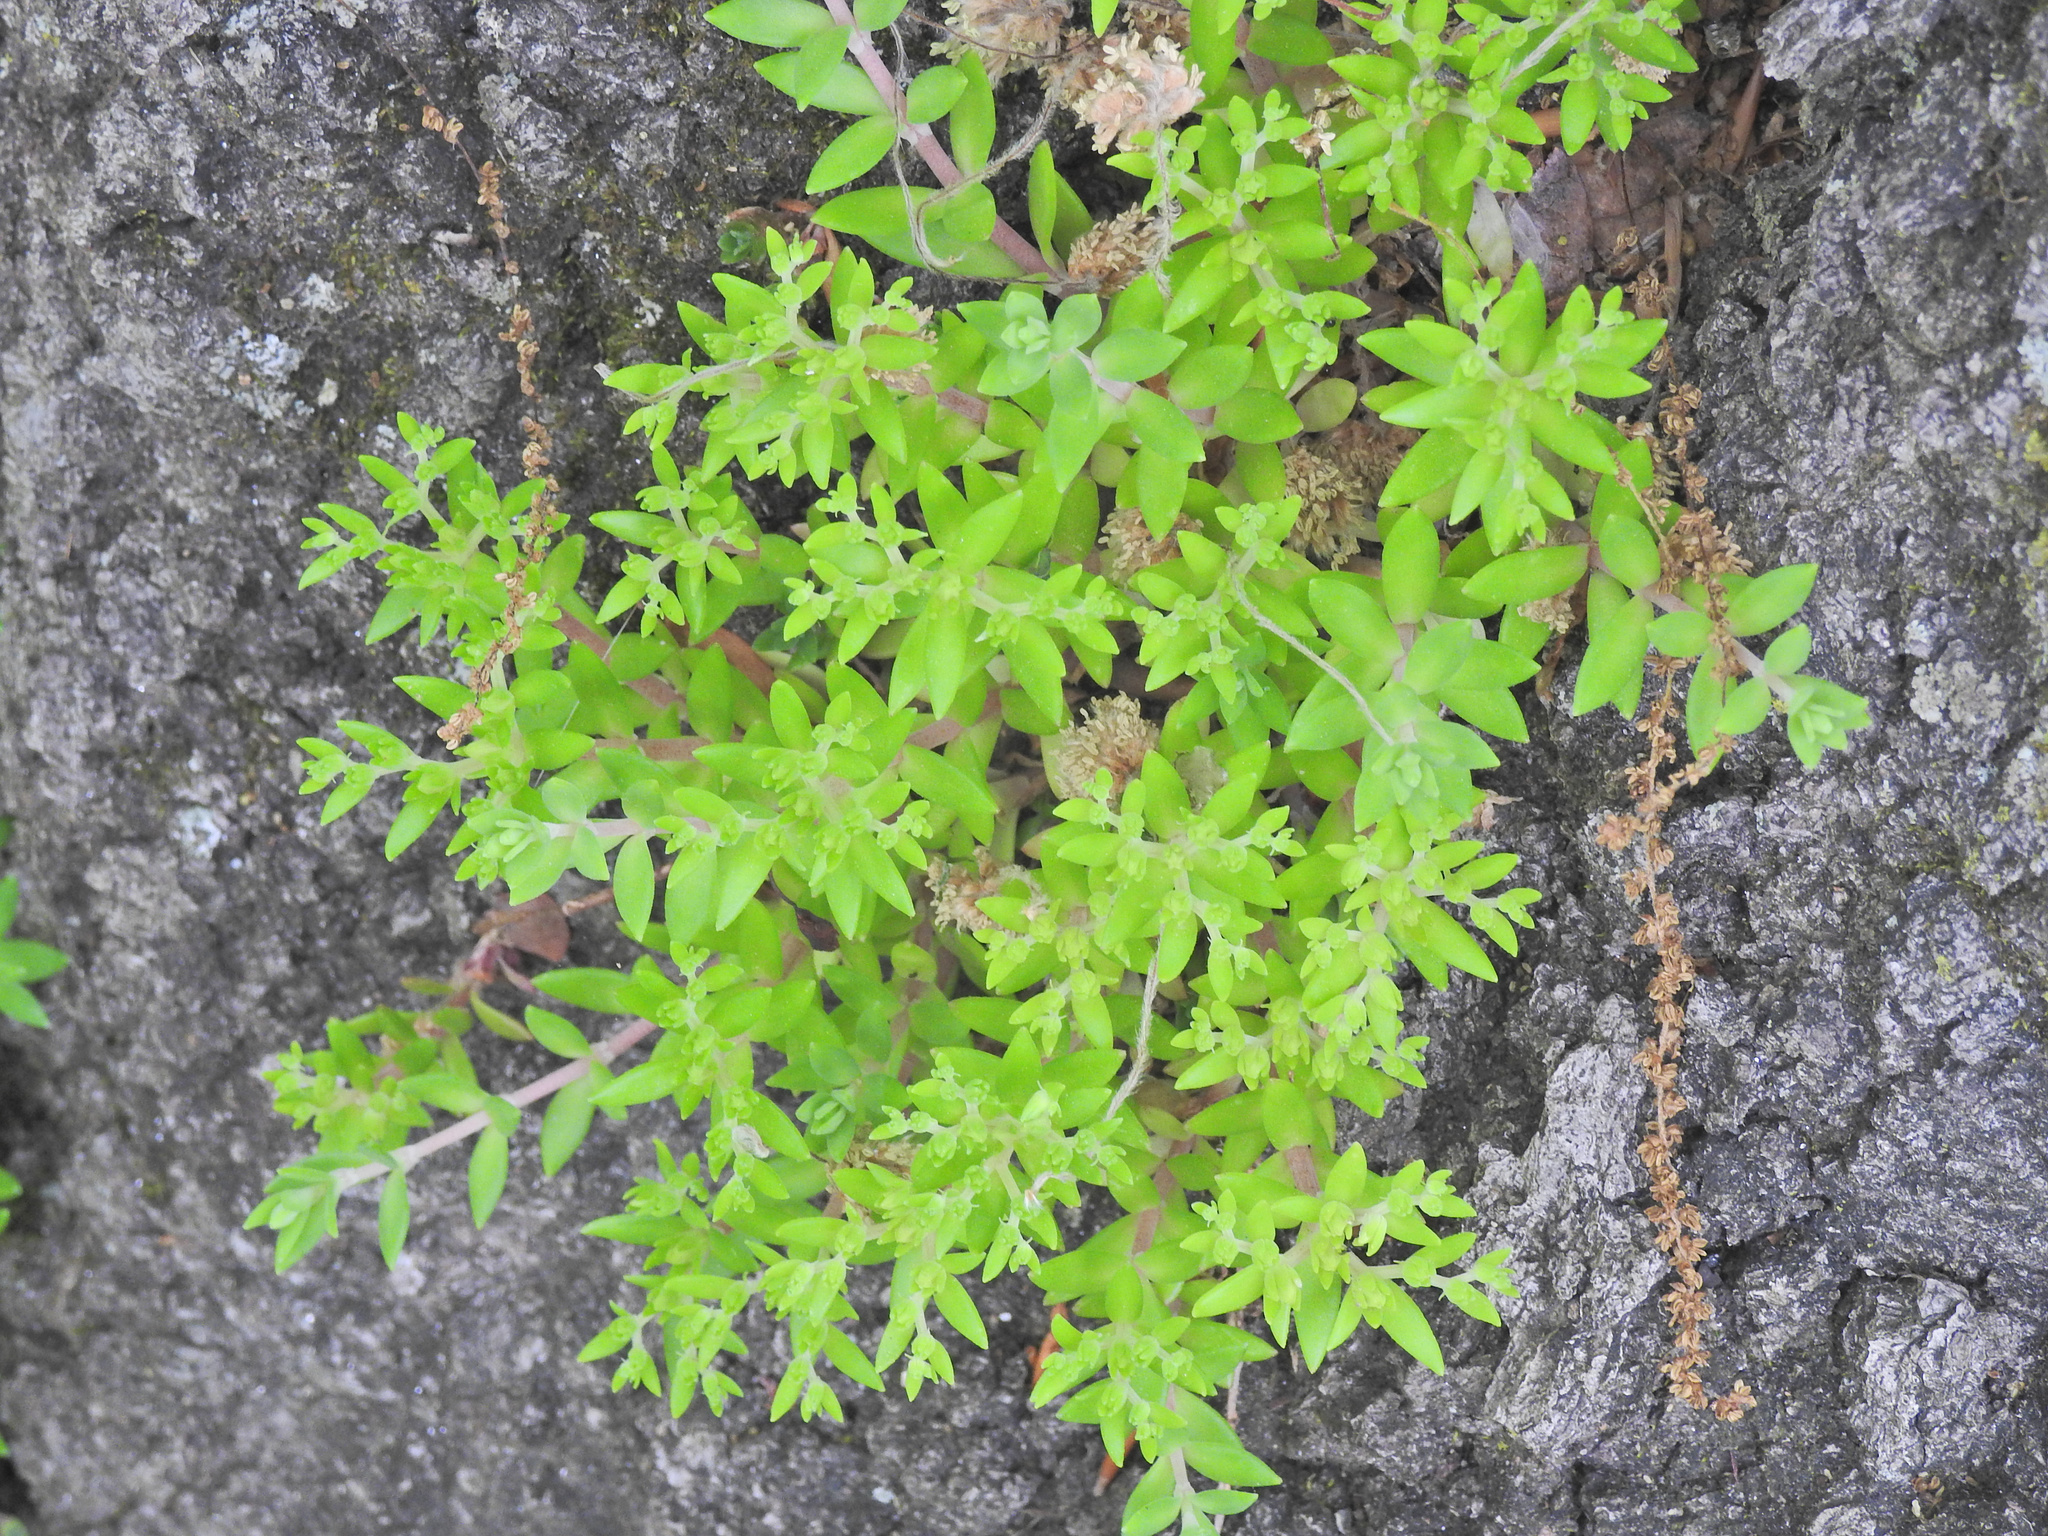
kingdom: Plantae
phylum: Tracheophyta
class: Magnoliopsida
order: Saxifragales
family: Crassulaceae
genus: Sedum
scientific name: Sedum sarmentosum
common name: Stringy stonecrop
